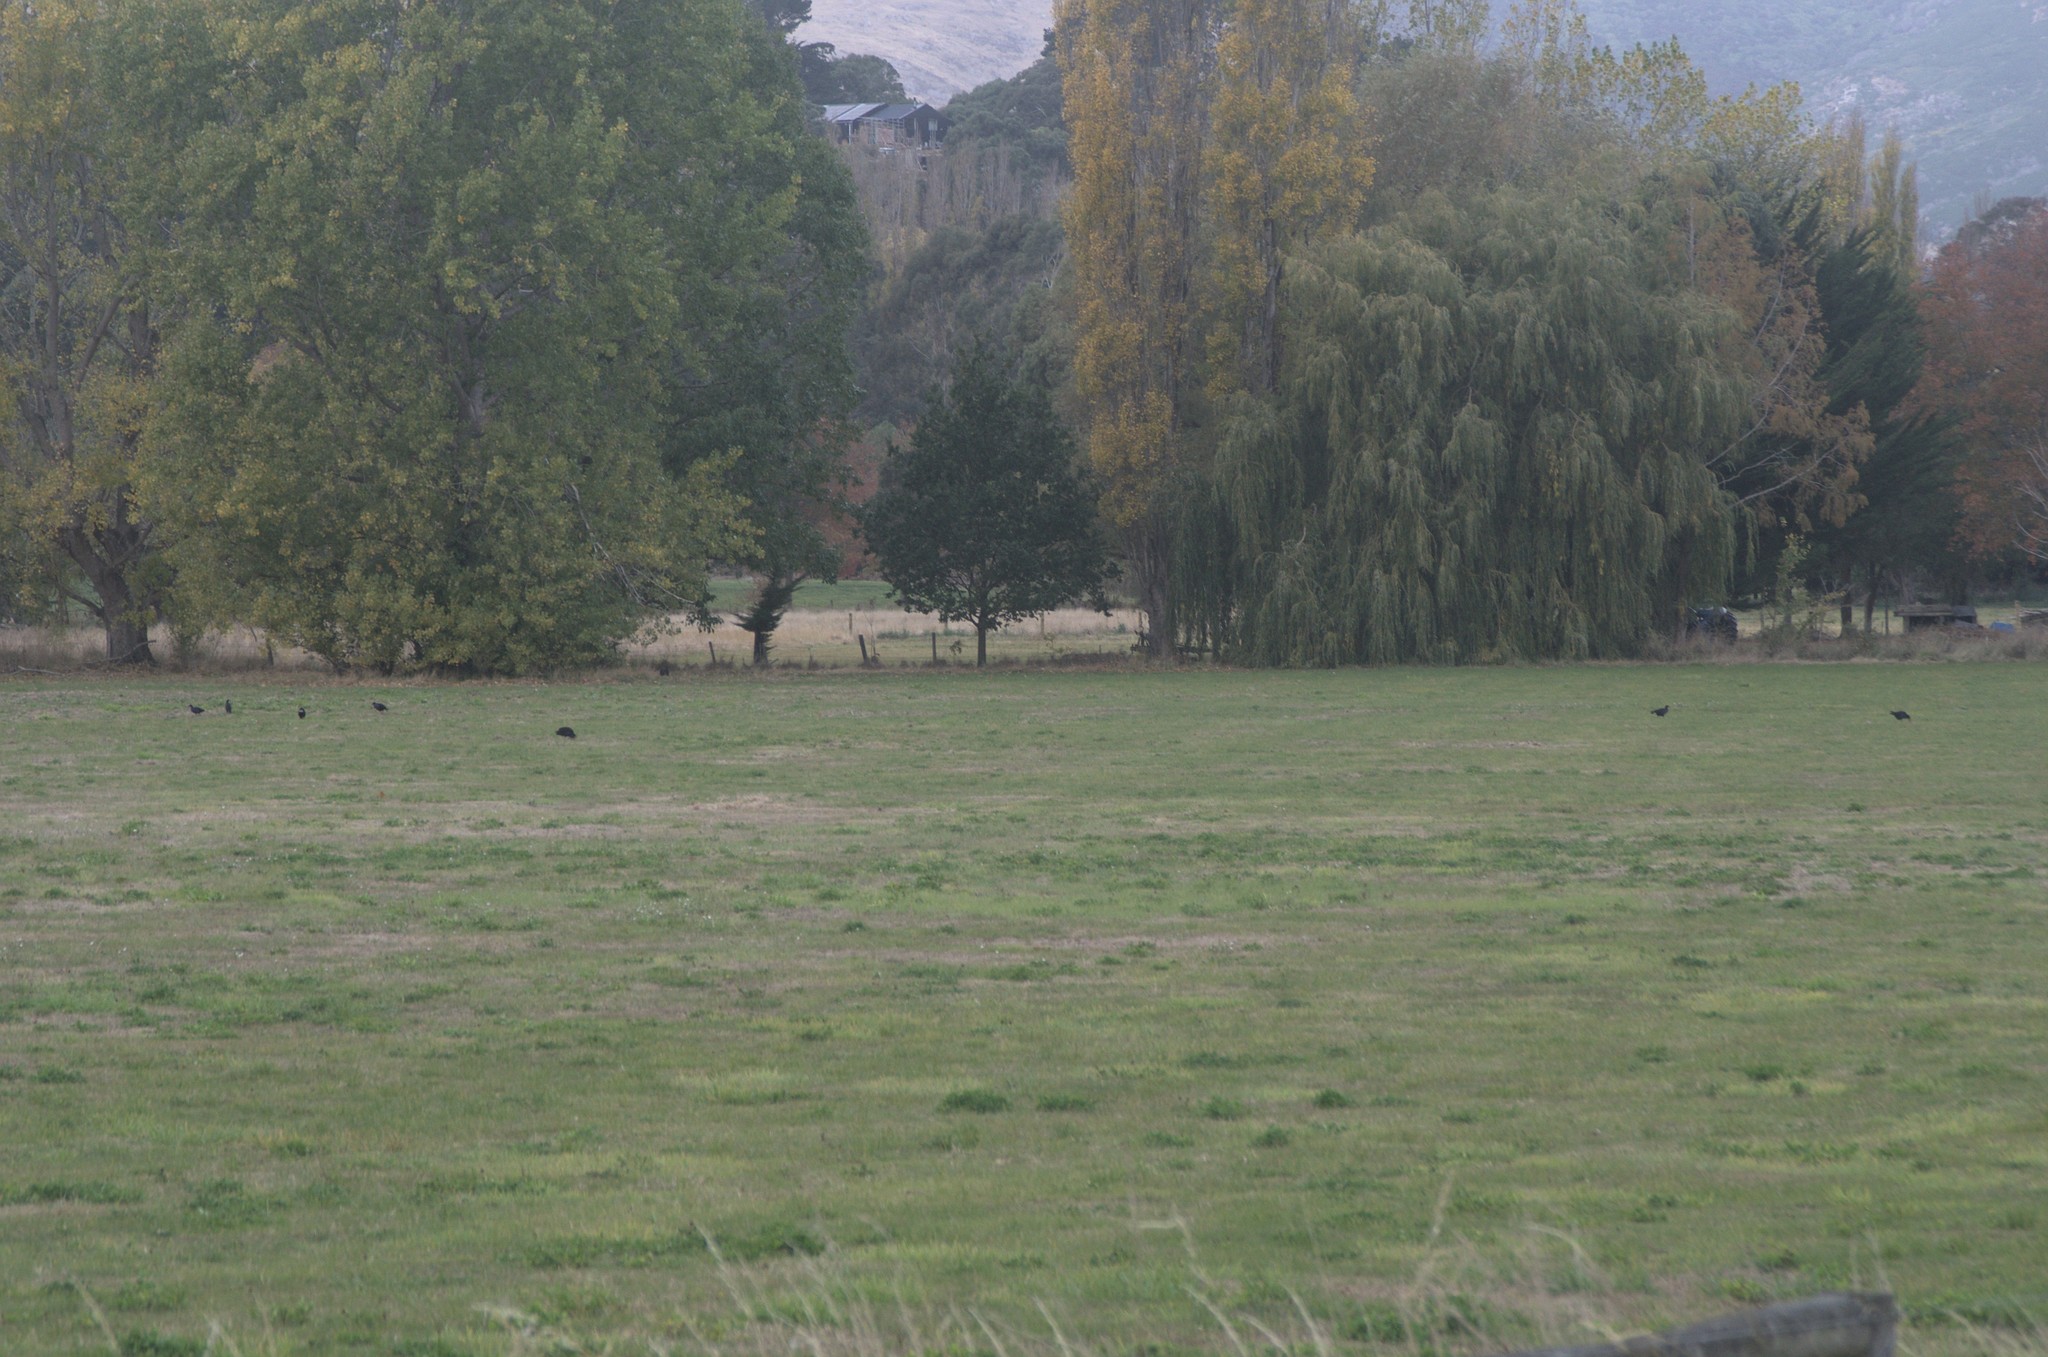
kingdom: Animalia
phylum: Chordata
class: Aves
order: Gruiformes
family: Rallidae
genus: Porphyrio
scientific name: Porphyrio melanotus
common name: Australasian swamphen
